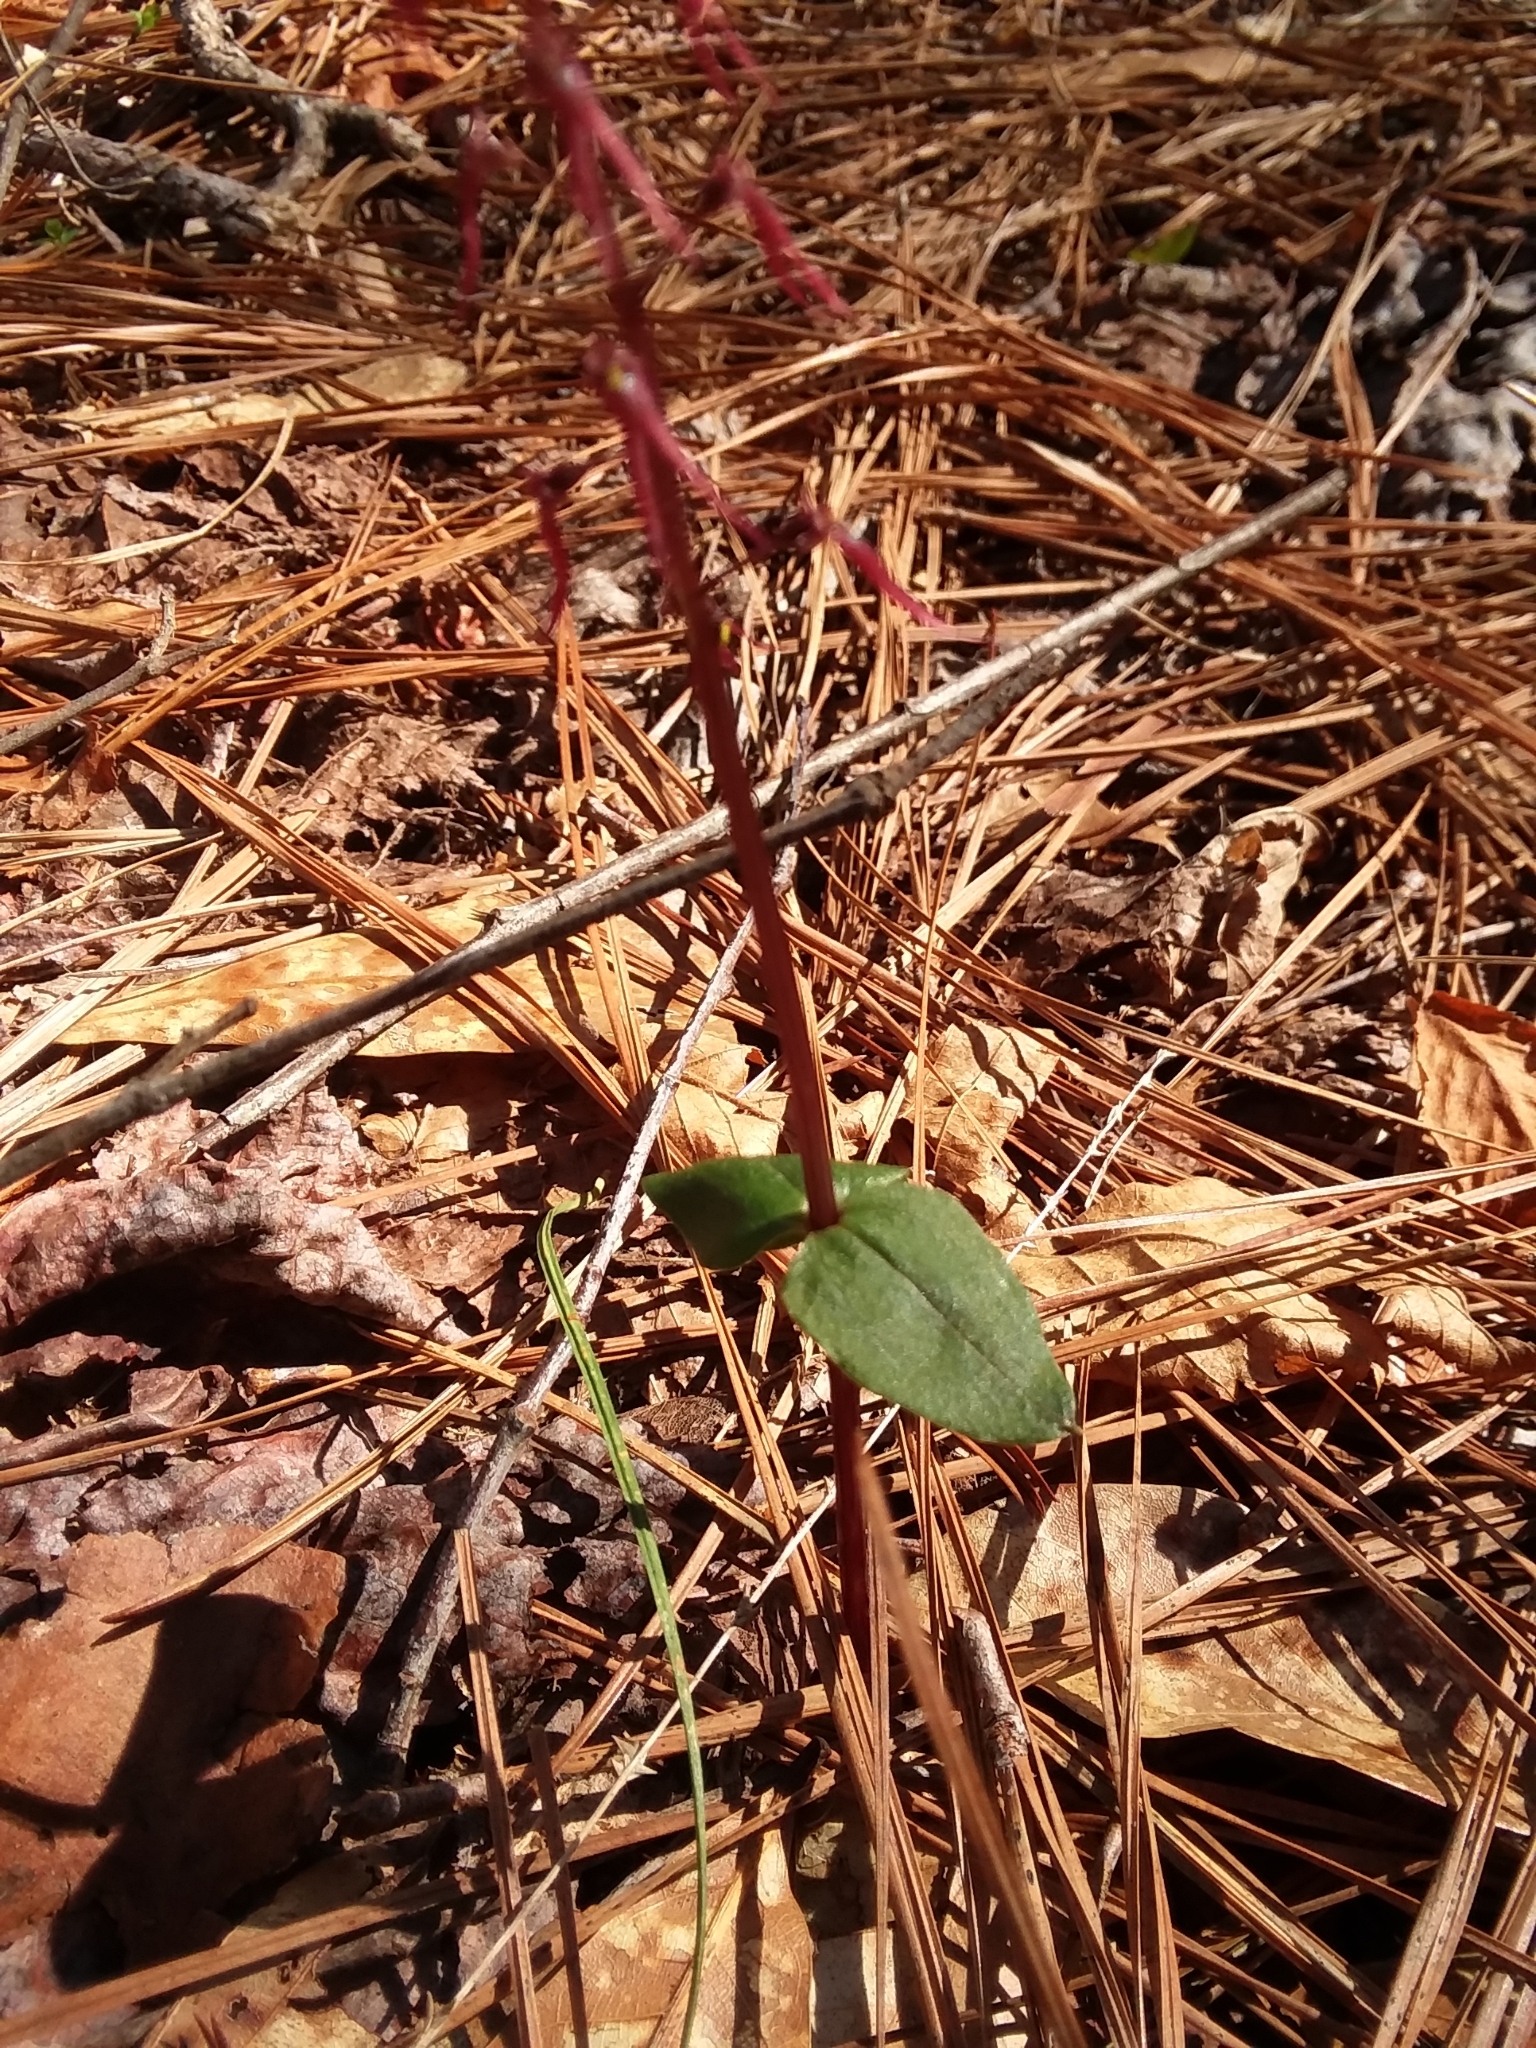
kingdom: Plantae
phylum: Tracheophyta
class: Liliopsida
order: Asparagales
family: Orchidaceae
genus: Neottia
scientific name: Neottia bifolia
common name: Southern twayblade
